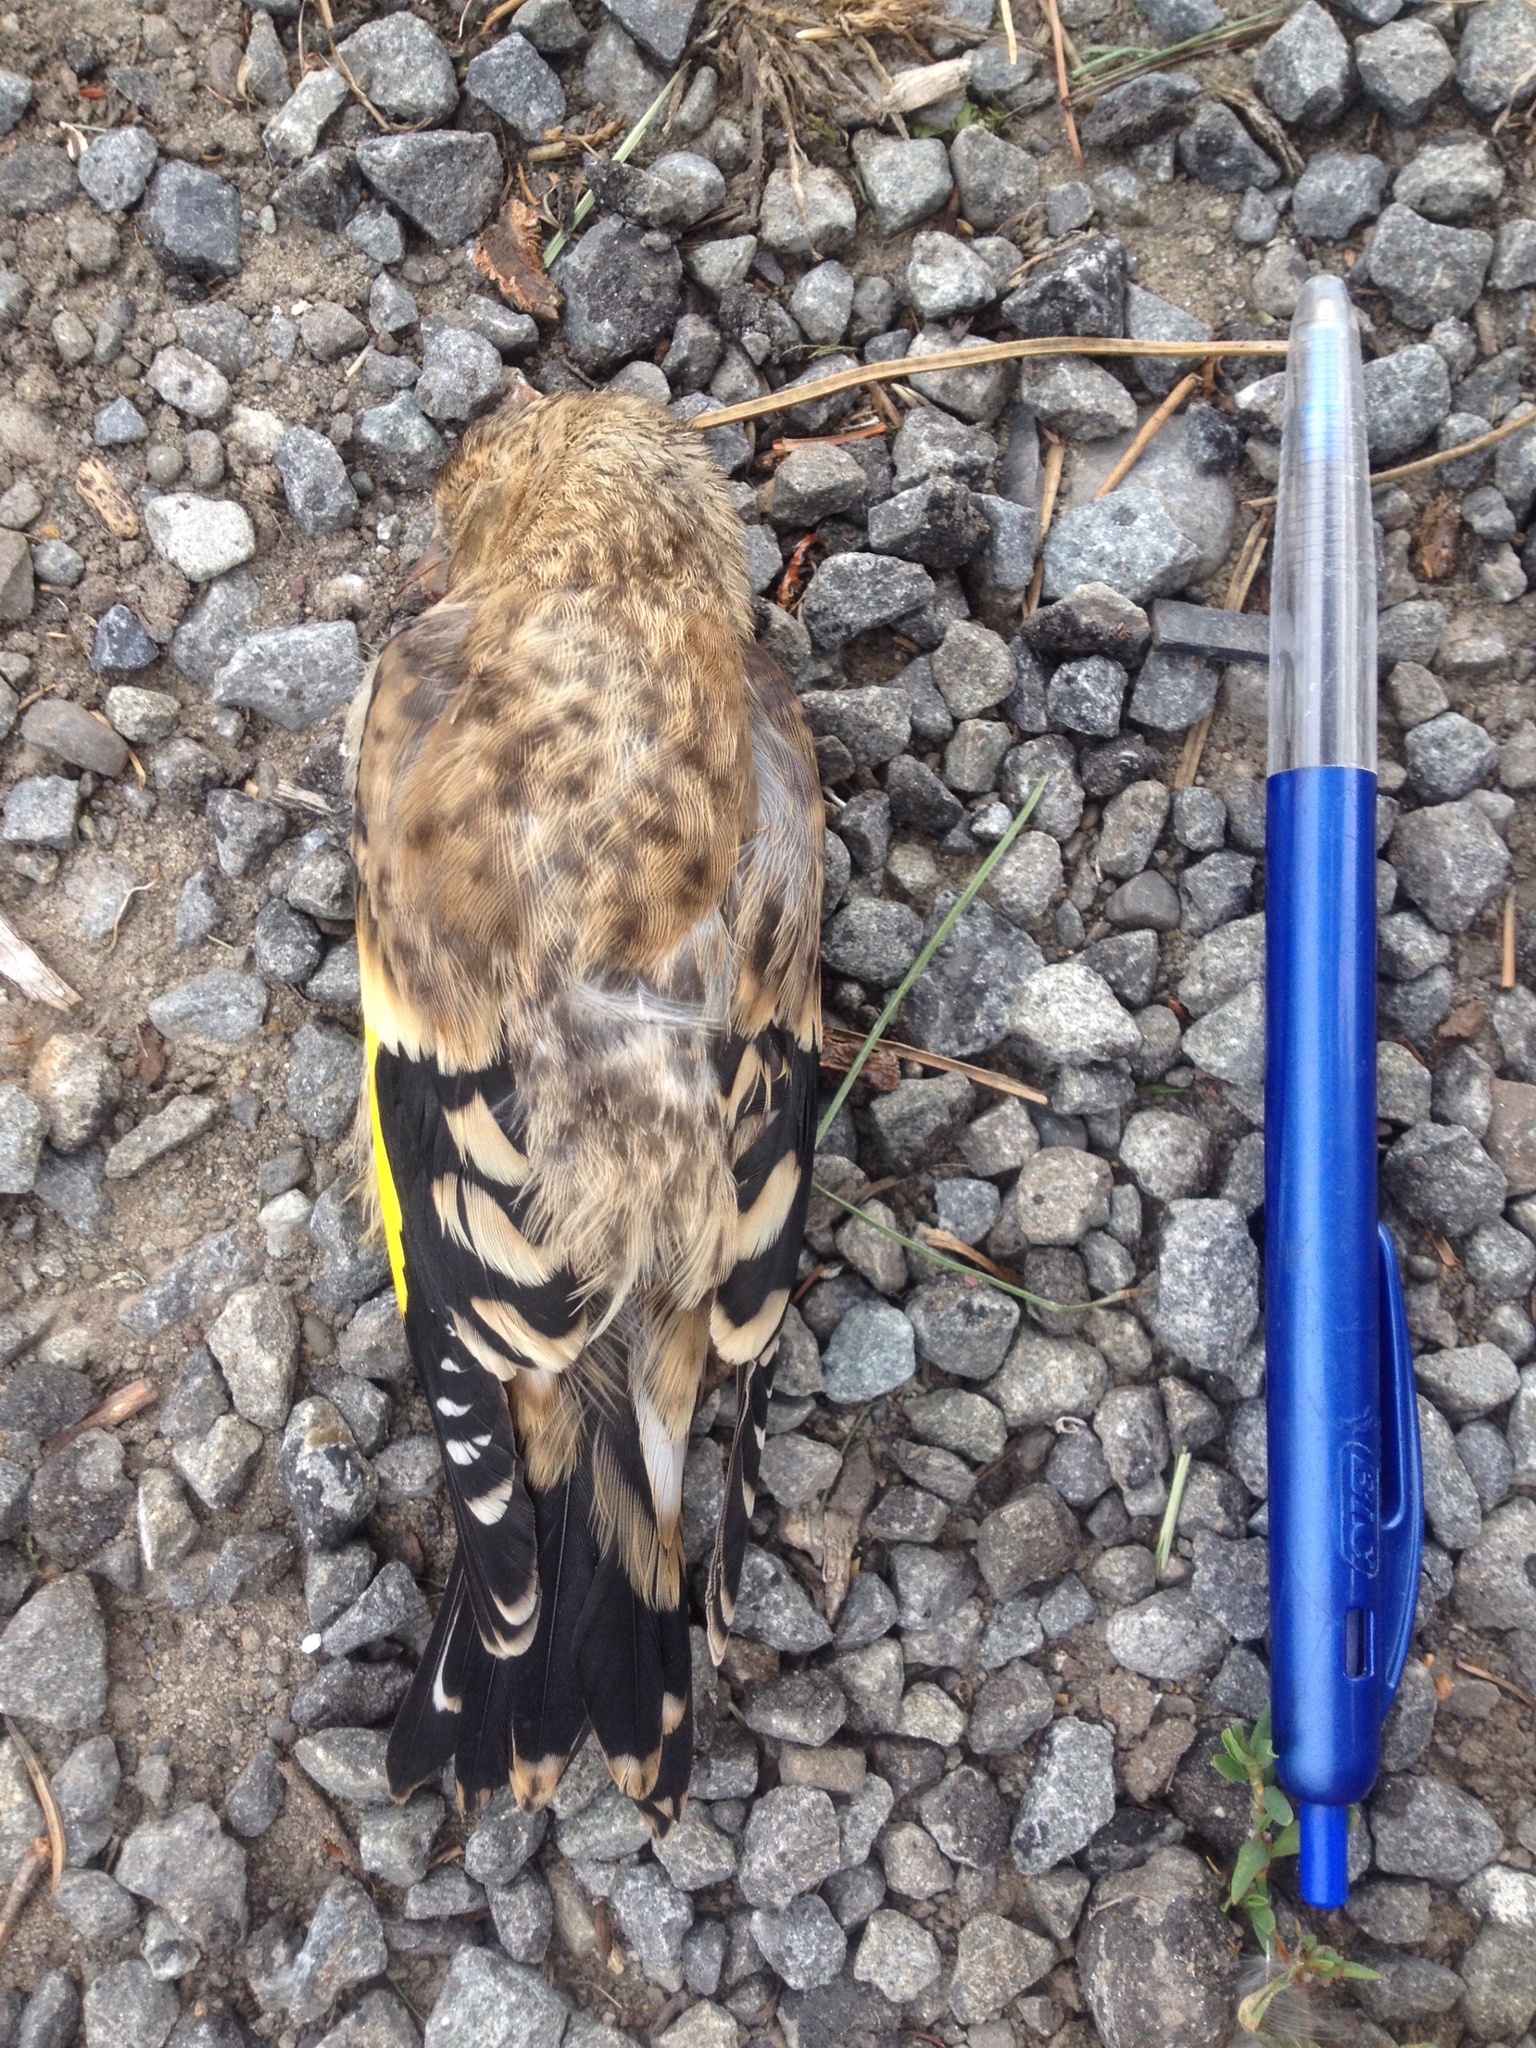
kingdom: Animalia
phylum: Chordata
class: Aves
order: Passeriformes
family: Fringillidae
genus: Carduelis
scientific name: Carduelis carduelis
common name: European goldfinch
